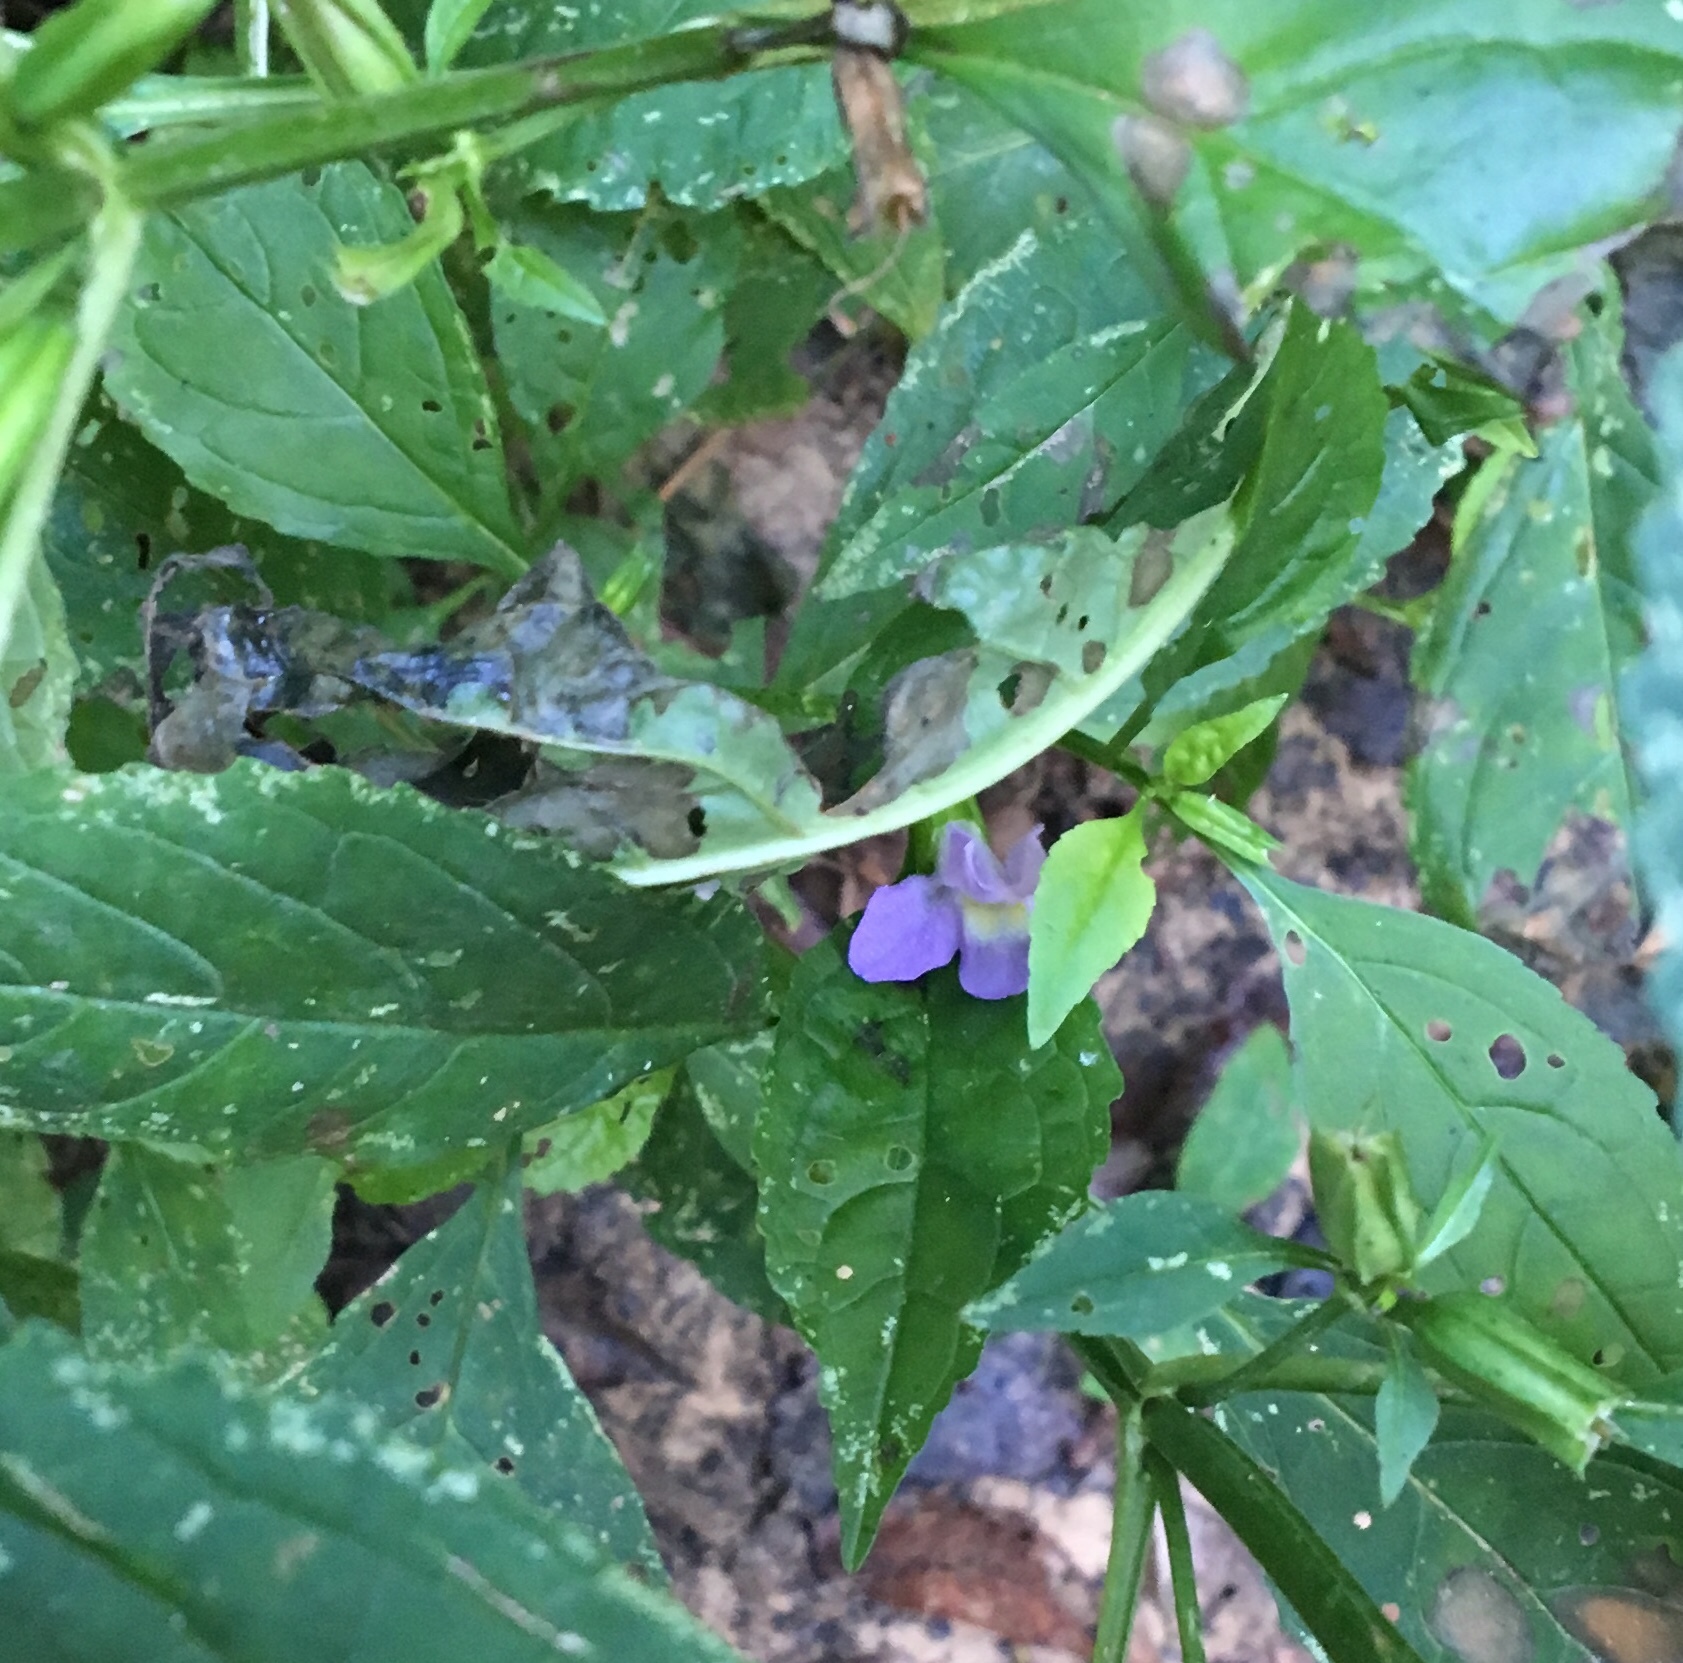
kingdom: Plantae
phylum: Tracheophyta
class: Magnoliopsida
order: Lamiales
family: Phrymaceae
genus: Mimulus
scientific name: Mimulus alatus
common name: Sharp-wing monkey-flower
